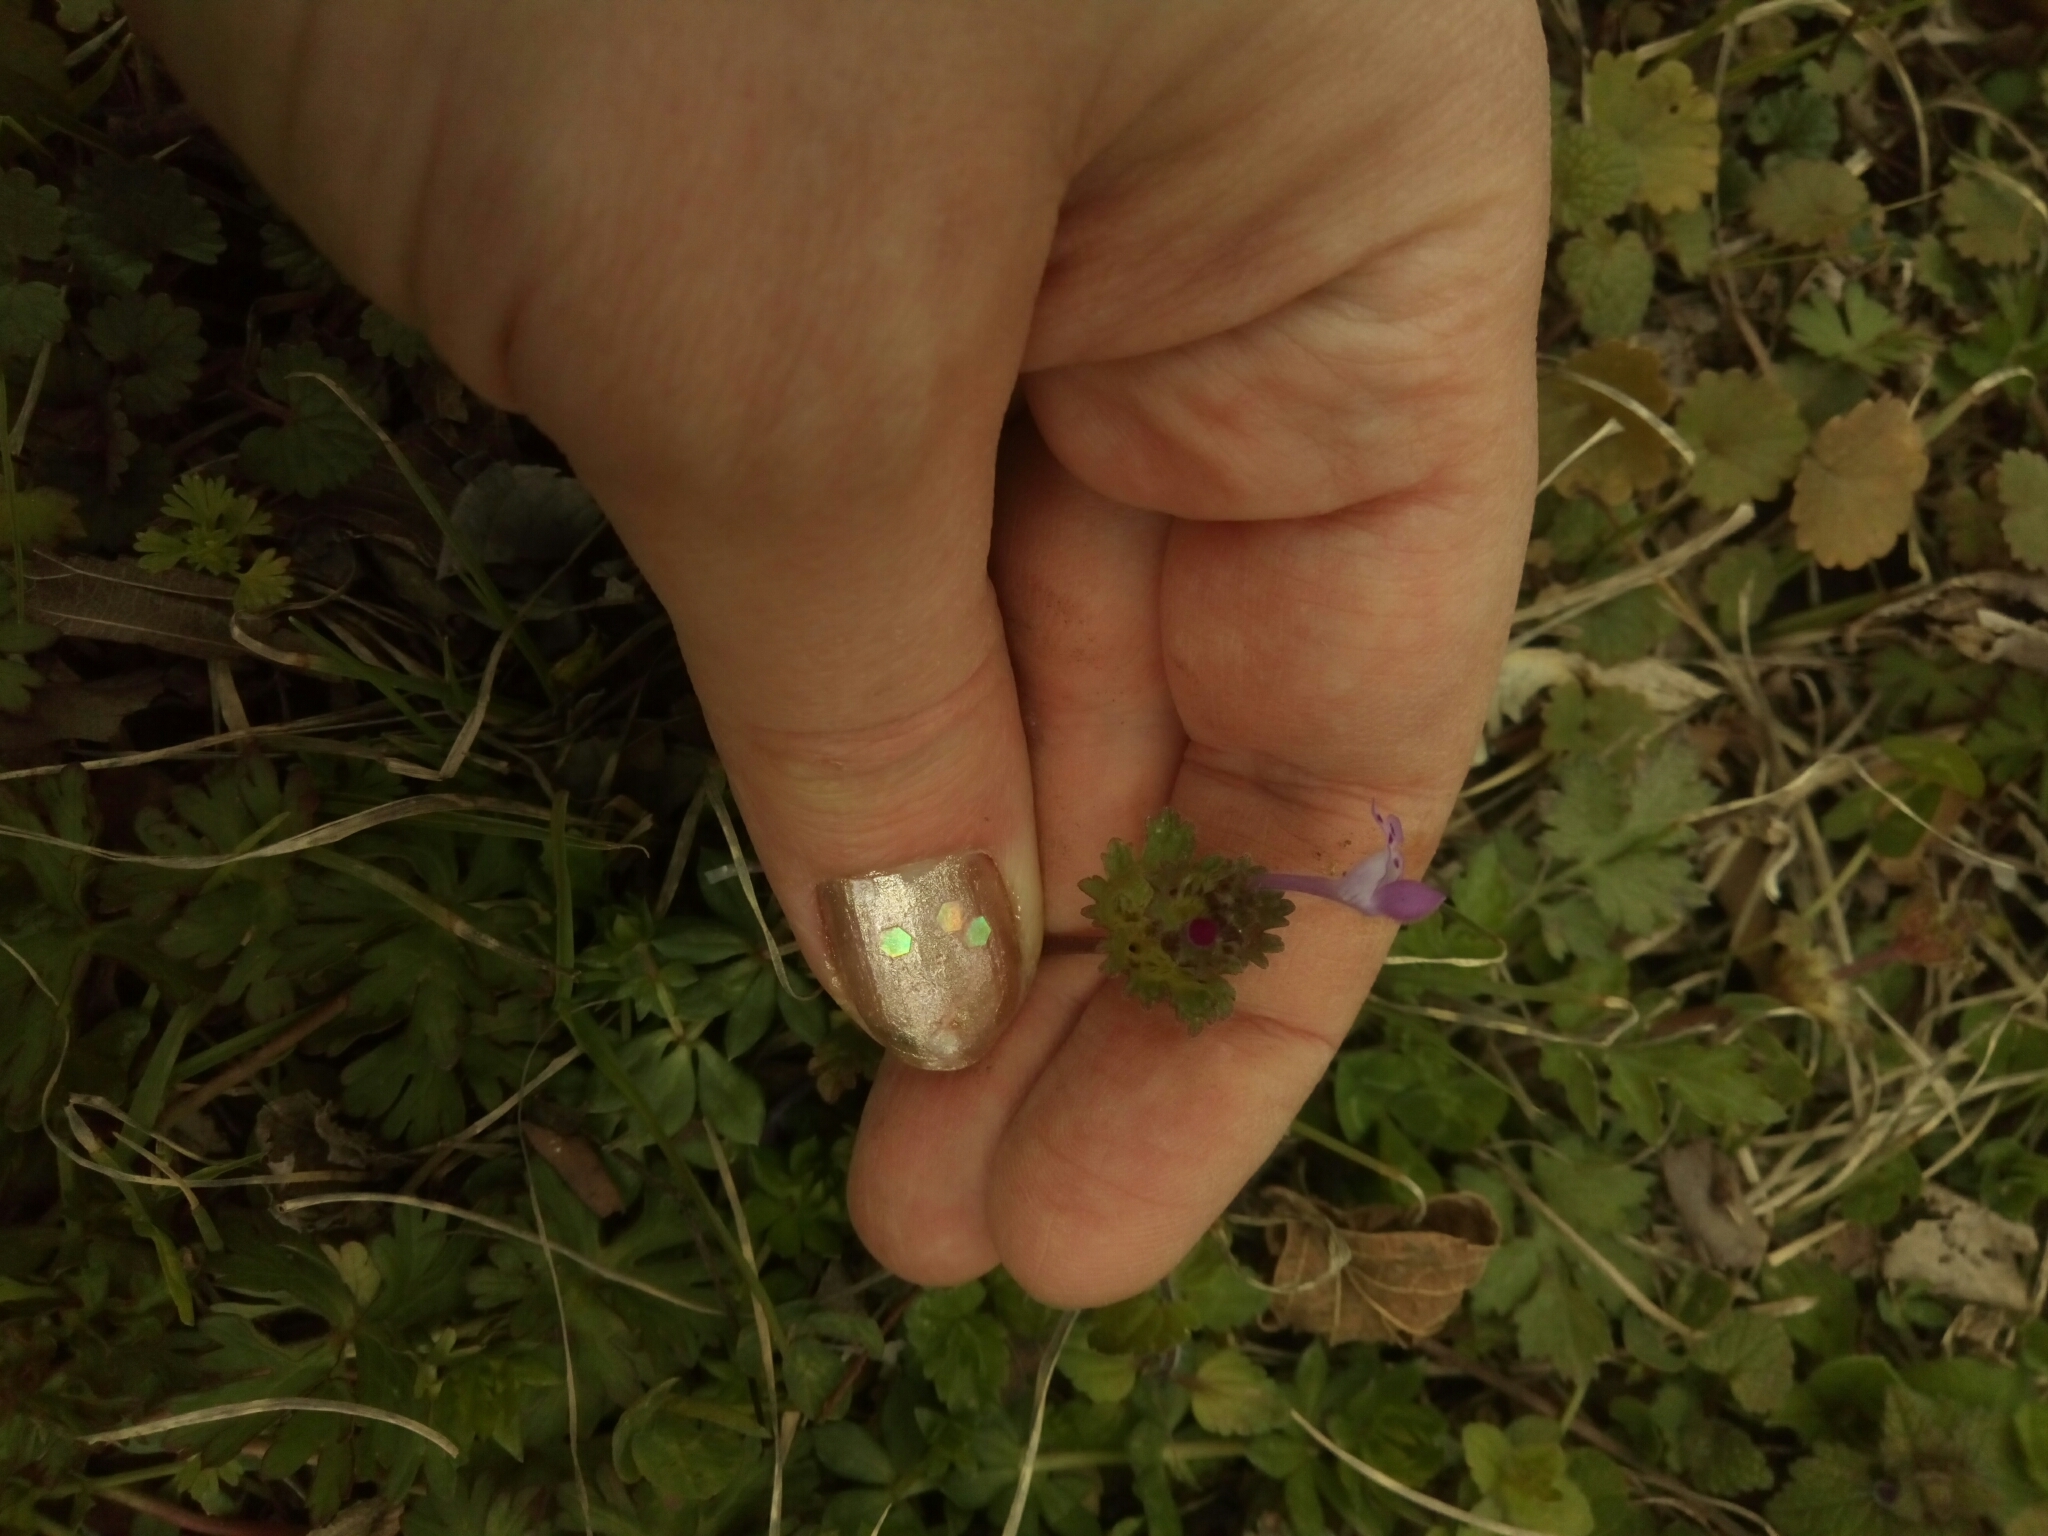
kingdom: Plantae
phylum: Tracheophyta
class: Magnoliopsida
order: Lamiales
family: Lamiaceae
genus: Lamium
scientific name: Lamium amplexicaule
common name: Henbit dead-nettle
